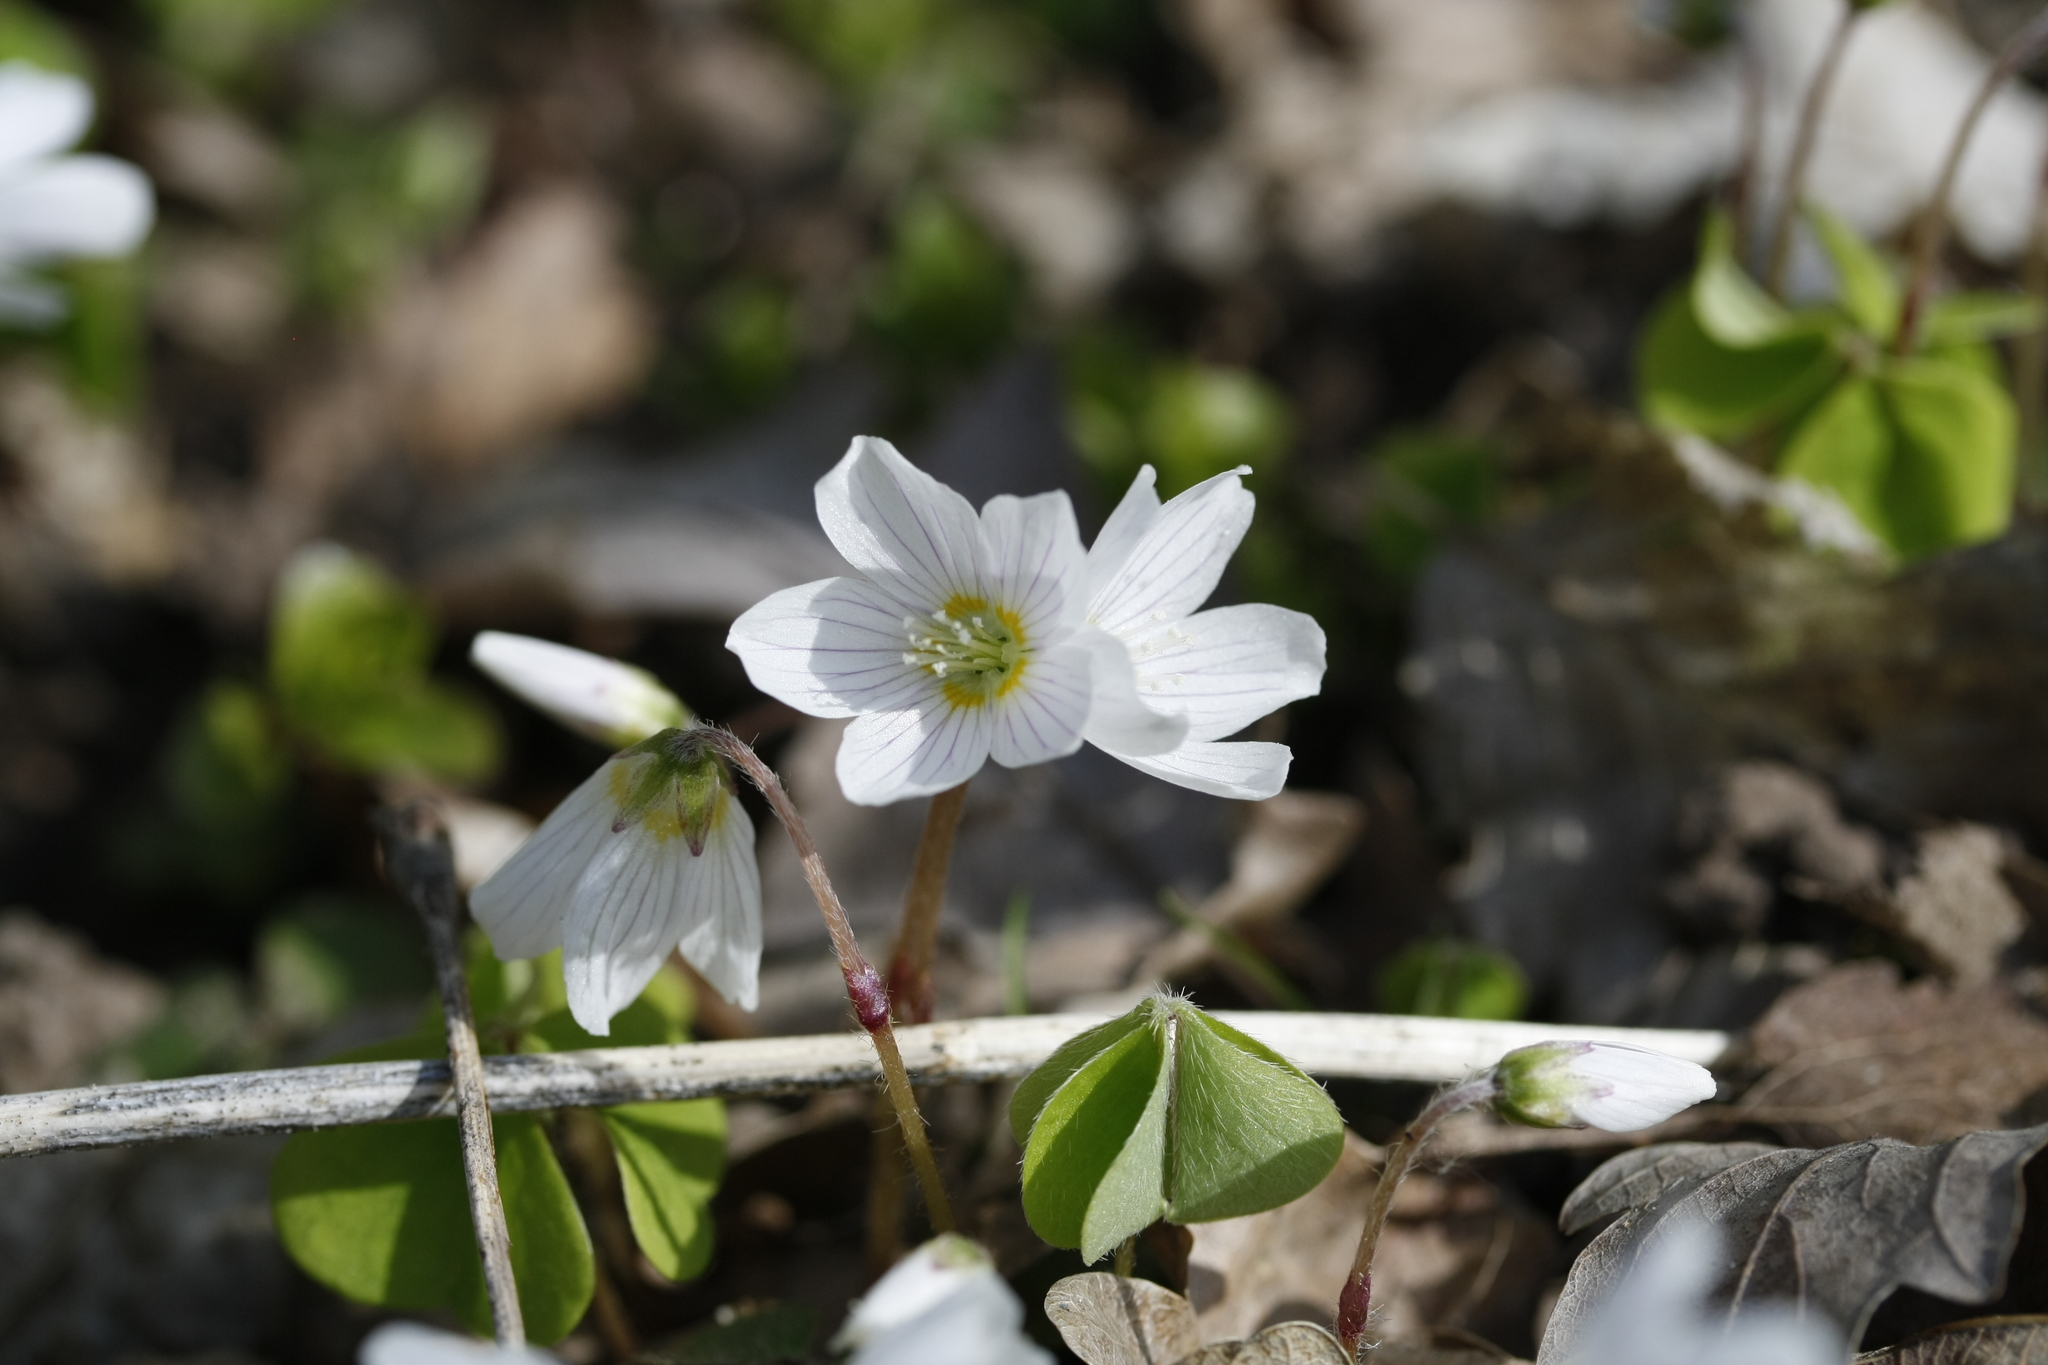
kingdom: Plantae
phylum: Tracheophyta
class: Magnoliopsida
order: Oxalidales
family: Oxalidaceae
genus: Oxalis
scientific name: Oxalis acetosella
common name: Wood-sorrel
